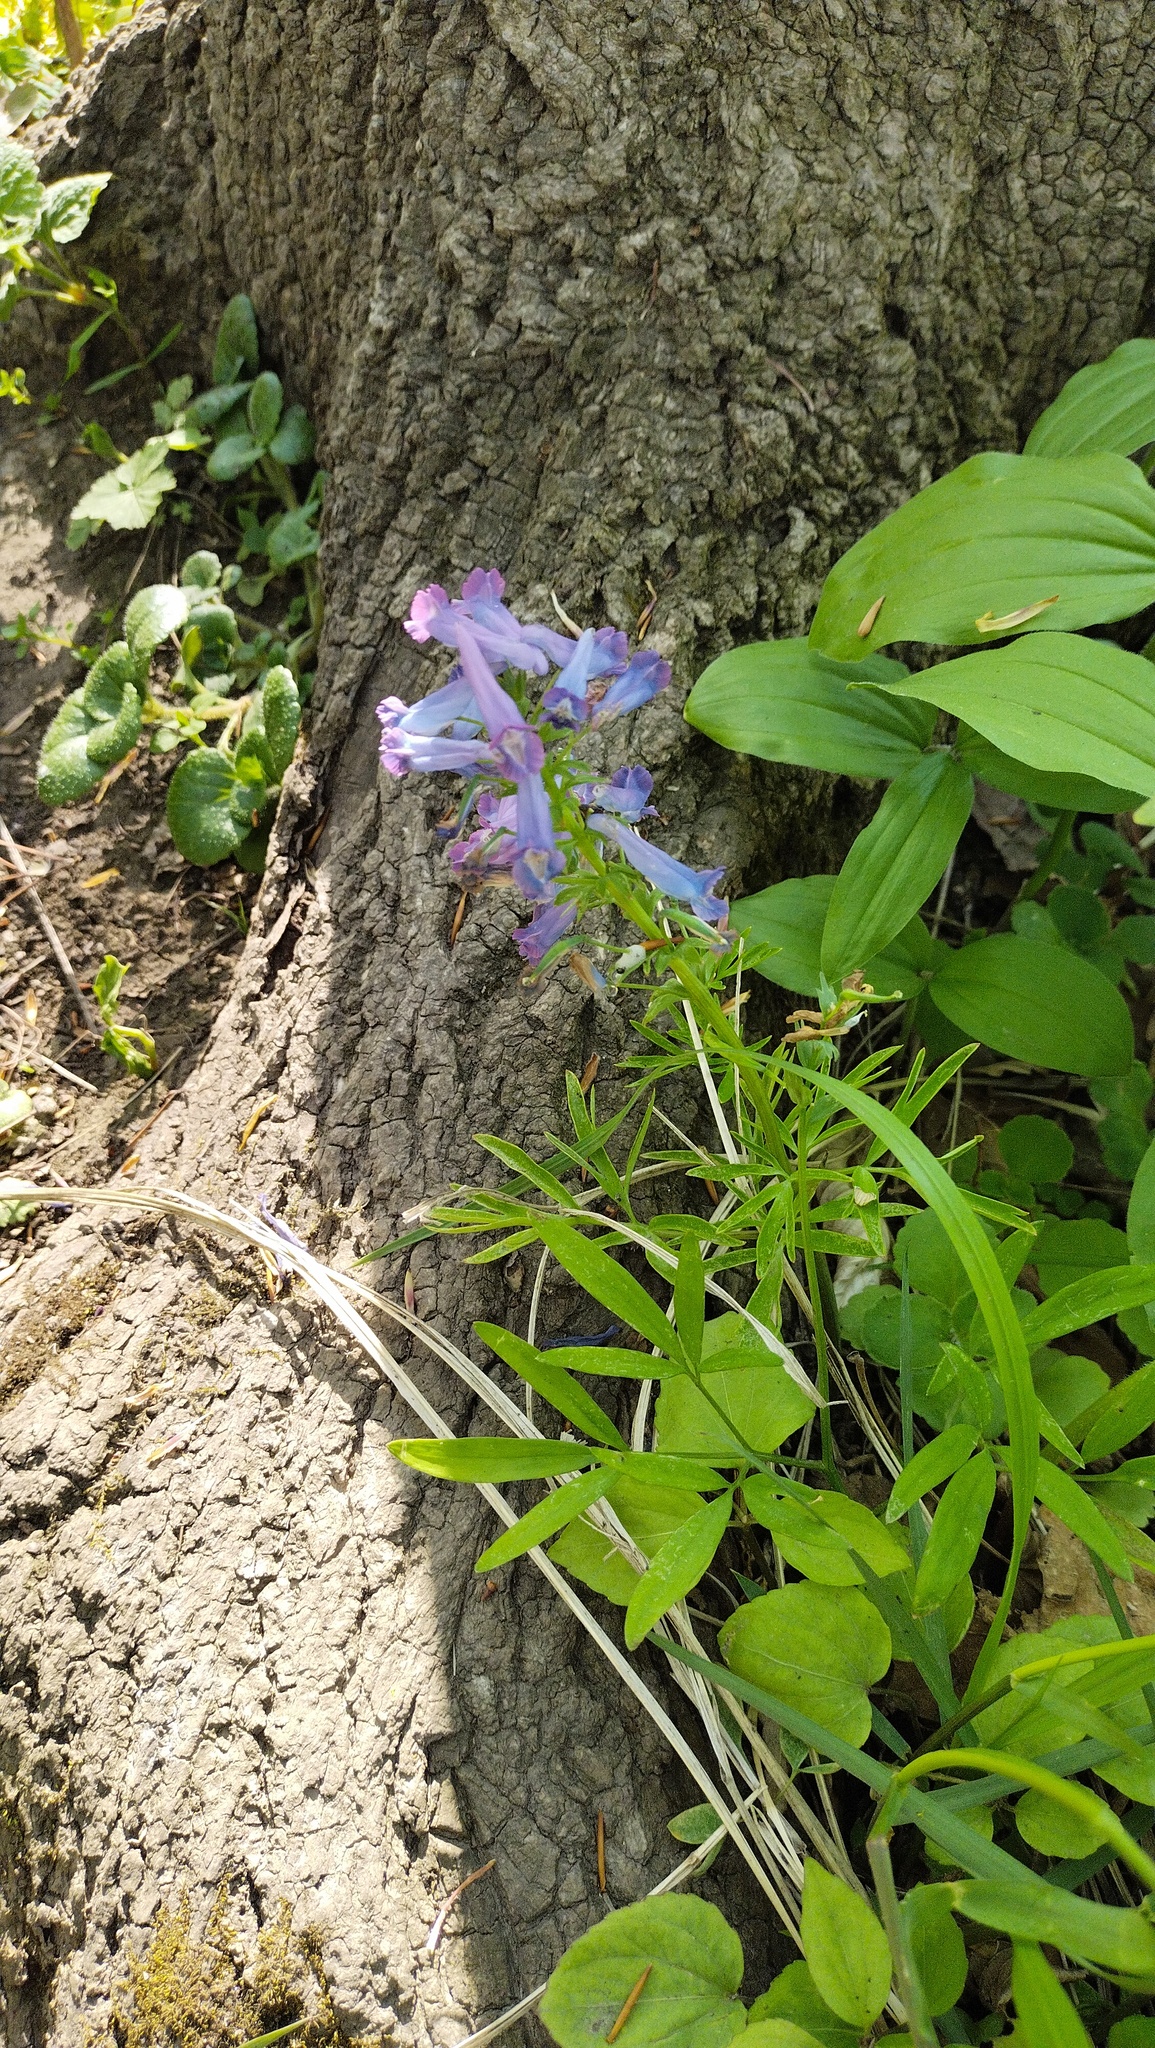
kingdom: Plantae
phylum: Tracheophyta
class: Magnoliopsida
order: Ranunculales
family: Papaveraceae
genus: Corydalis
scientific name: Corydalis turtschaninovii
